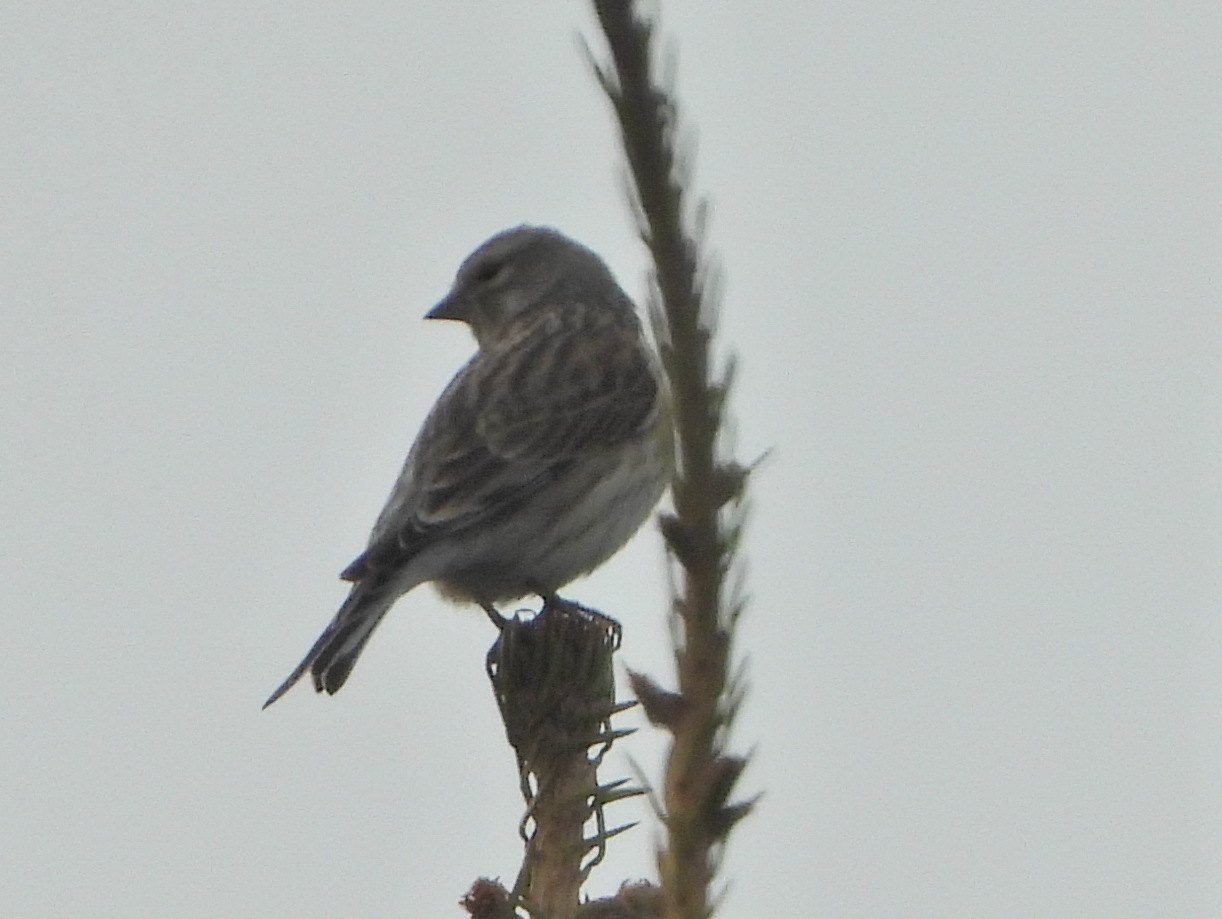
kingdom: Animalia
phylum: Chordata
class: Aves
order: Passeriformes
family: Fringillidae
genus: Linaria
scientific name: Linaria cannabina
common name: Common linnet
